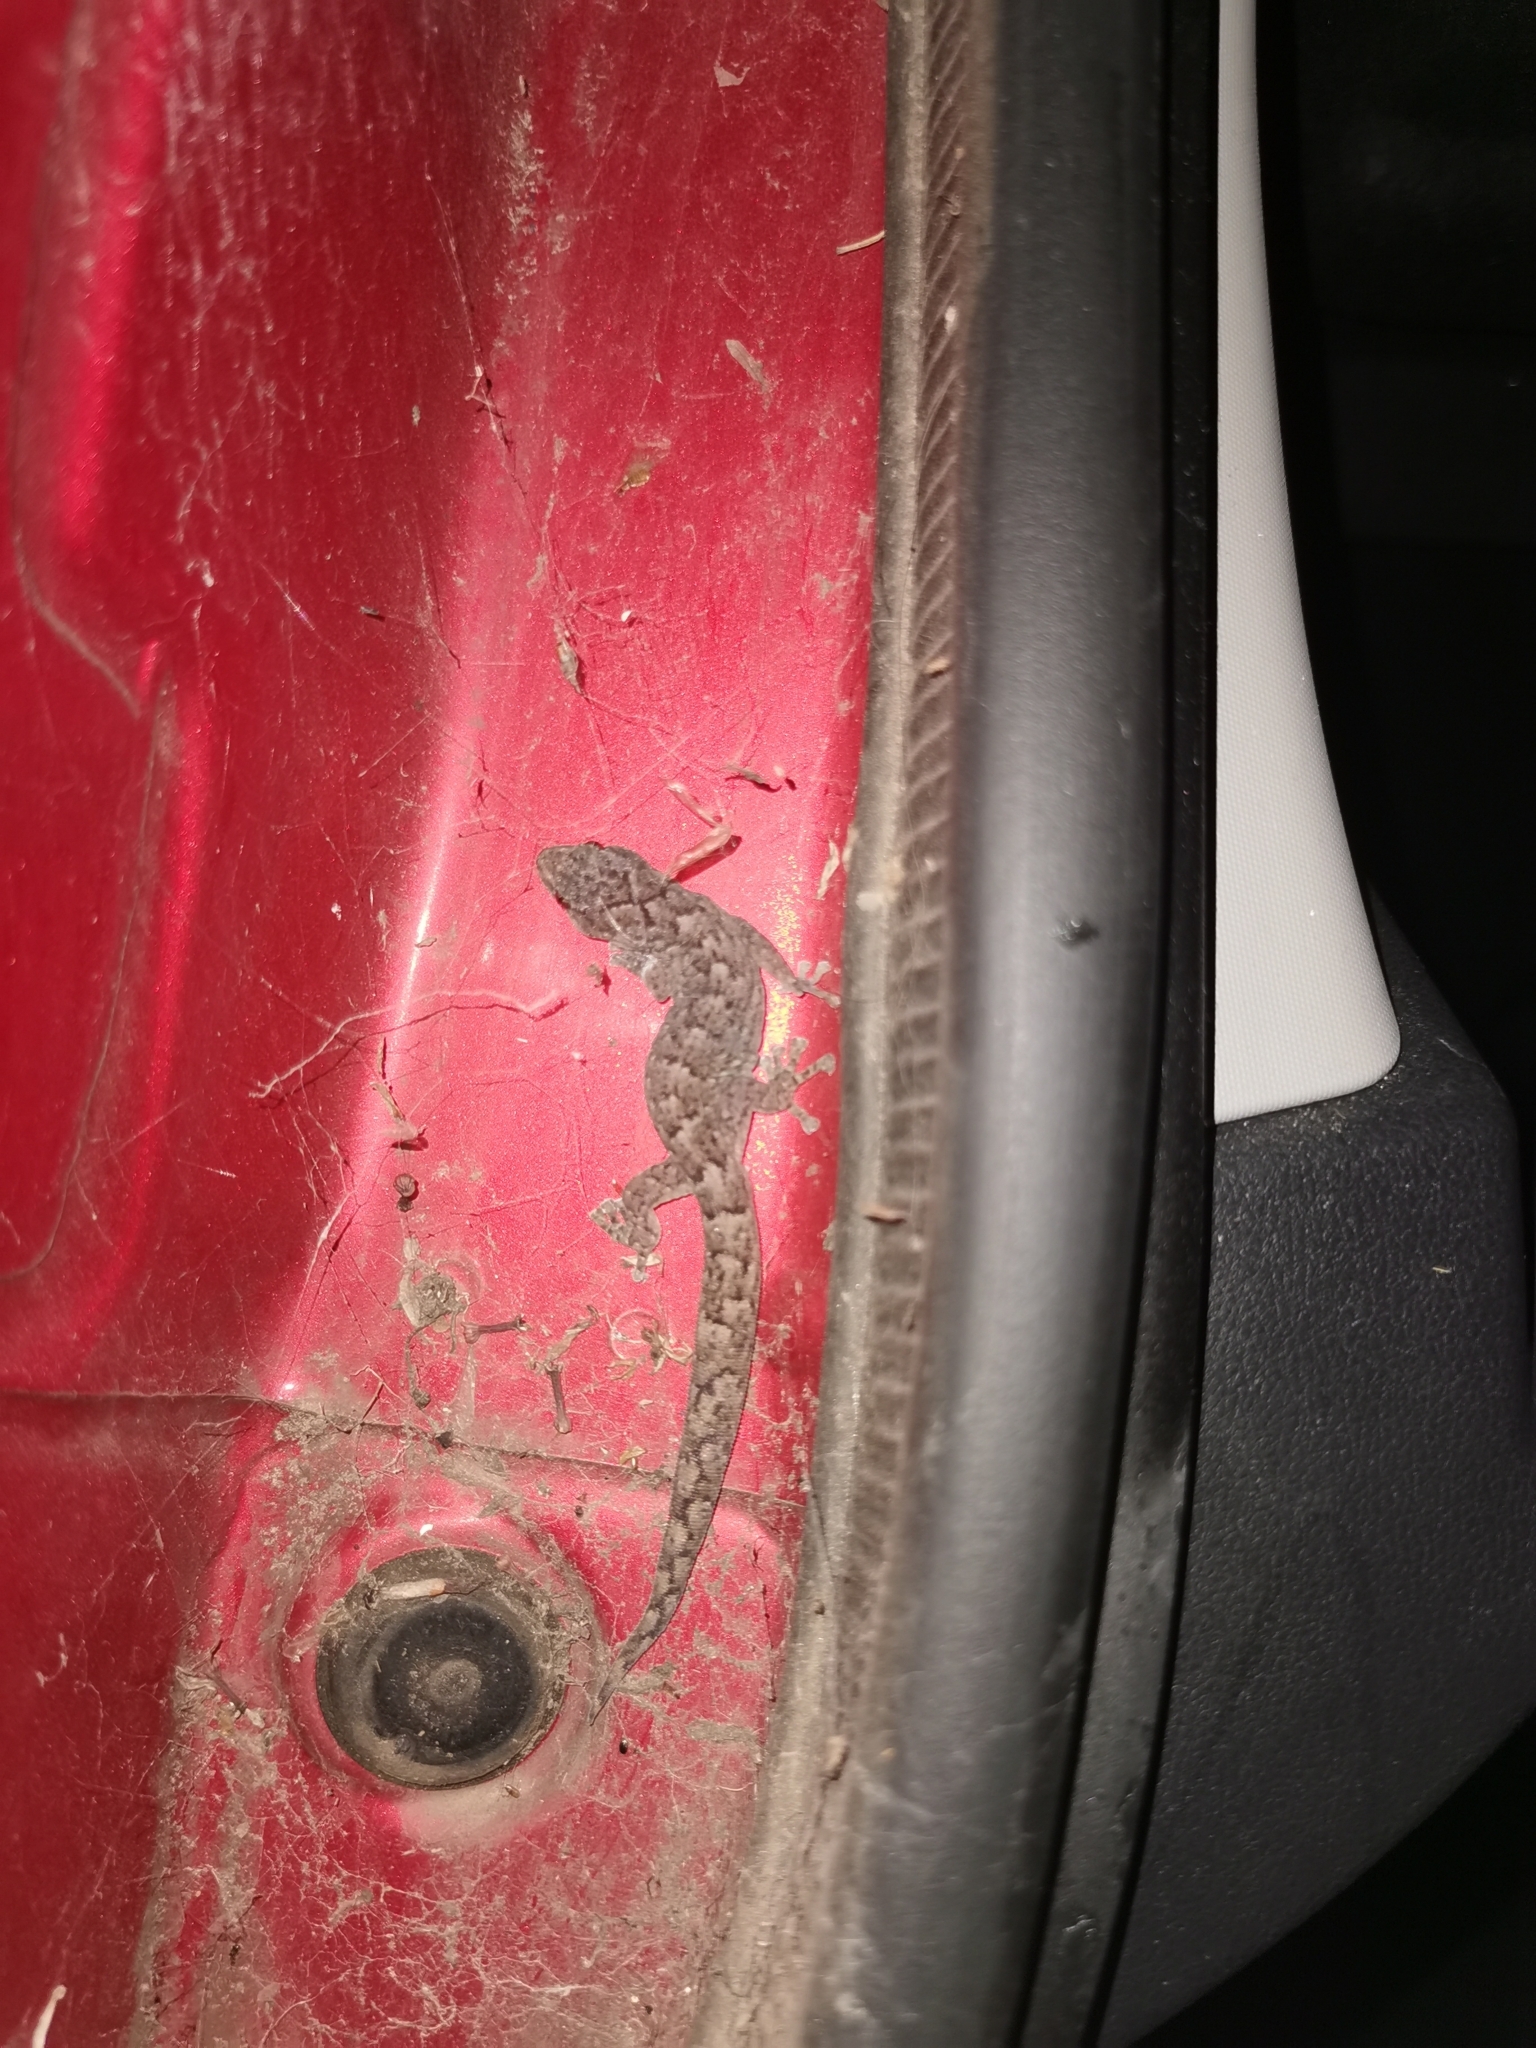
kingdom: Animalia
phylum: Chordata
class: Squamata
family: Gekkonidae
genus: Christinus
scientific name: Christinus marmoratus
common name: Marbled gecko
